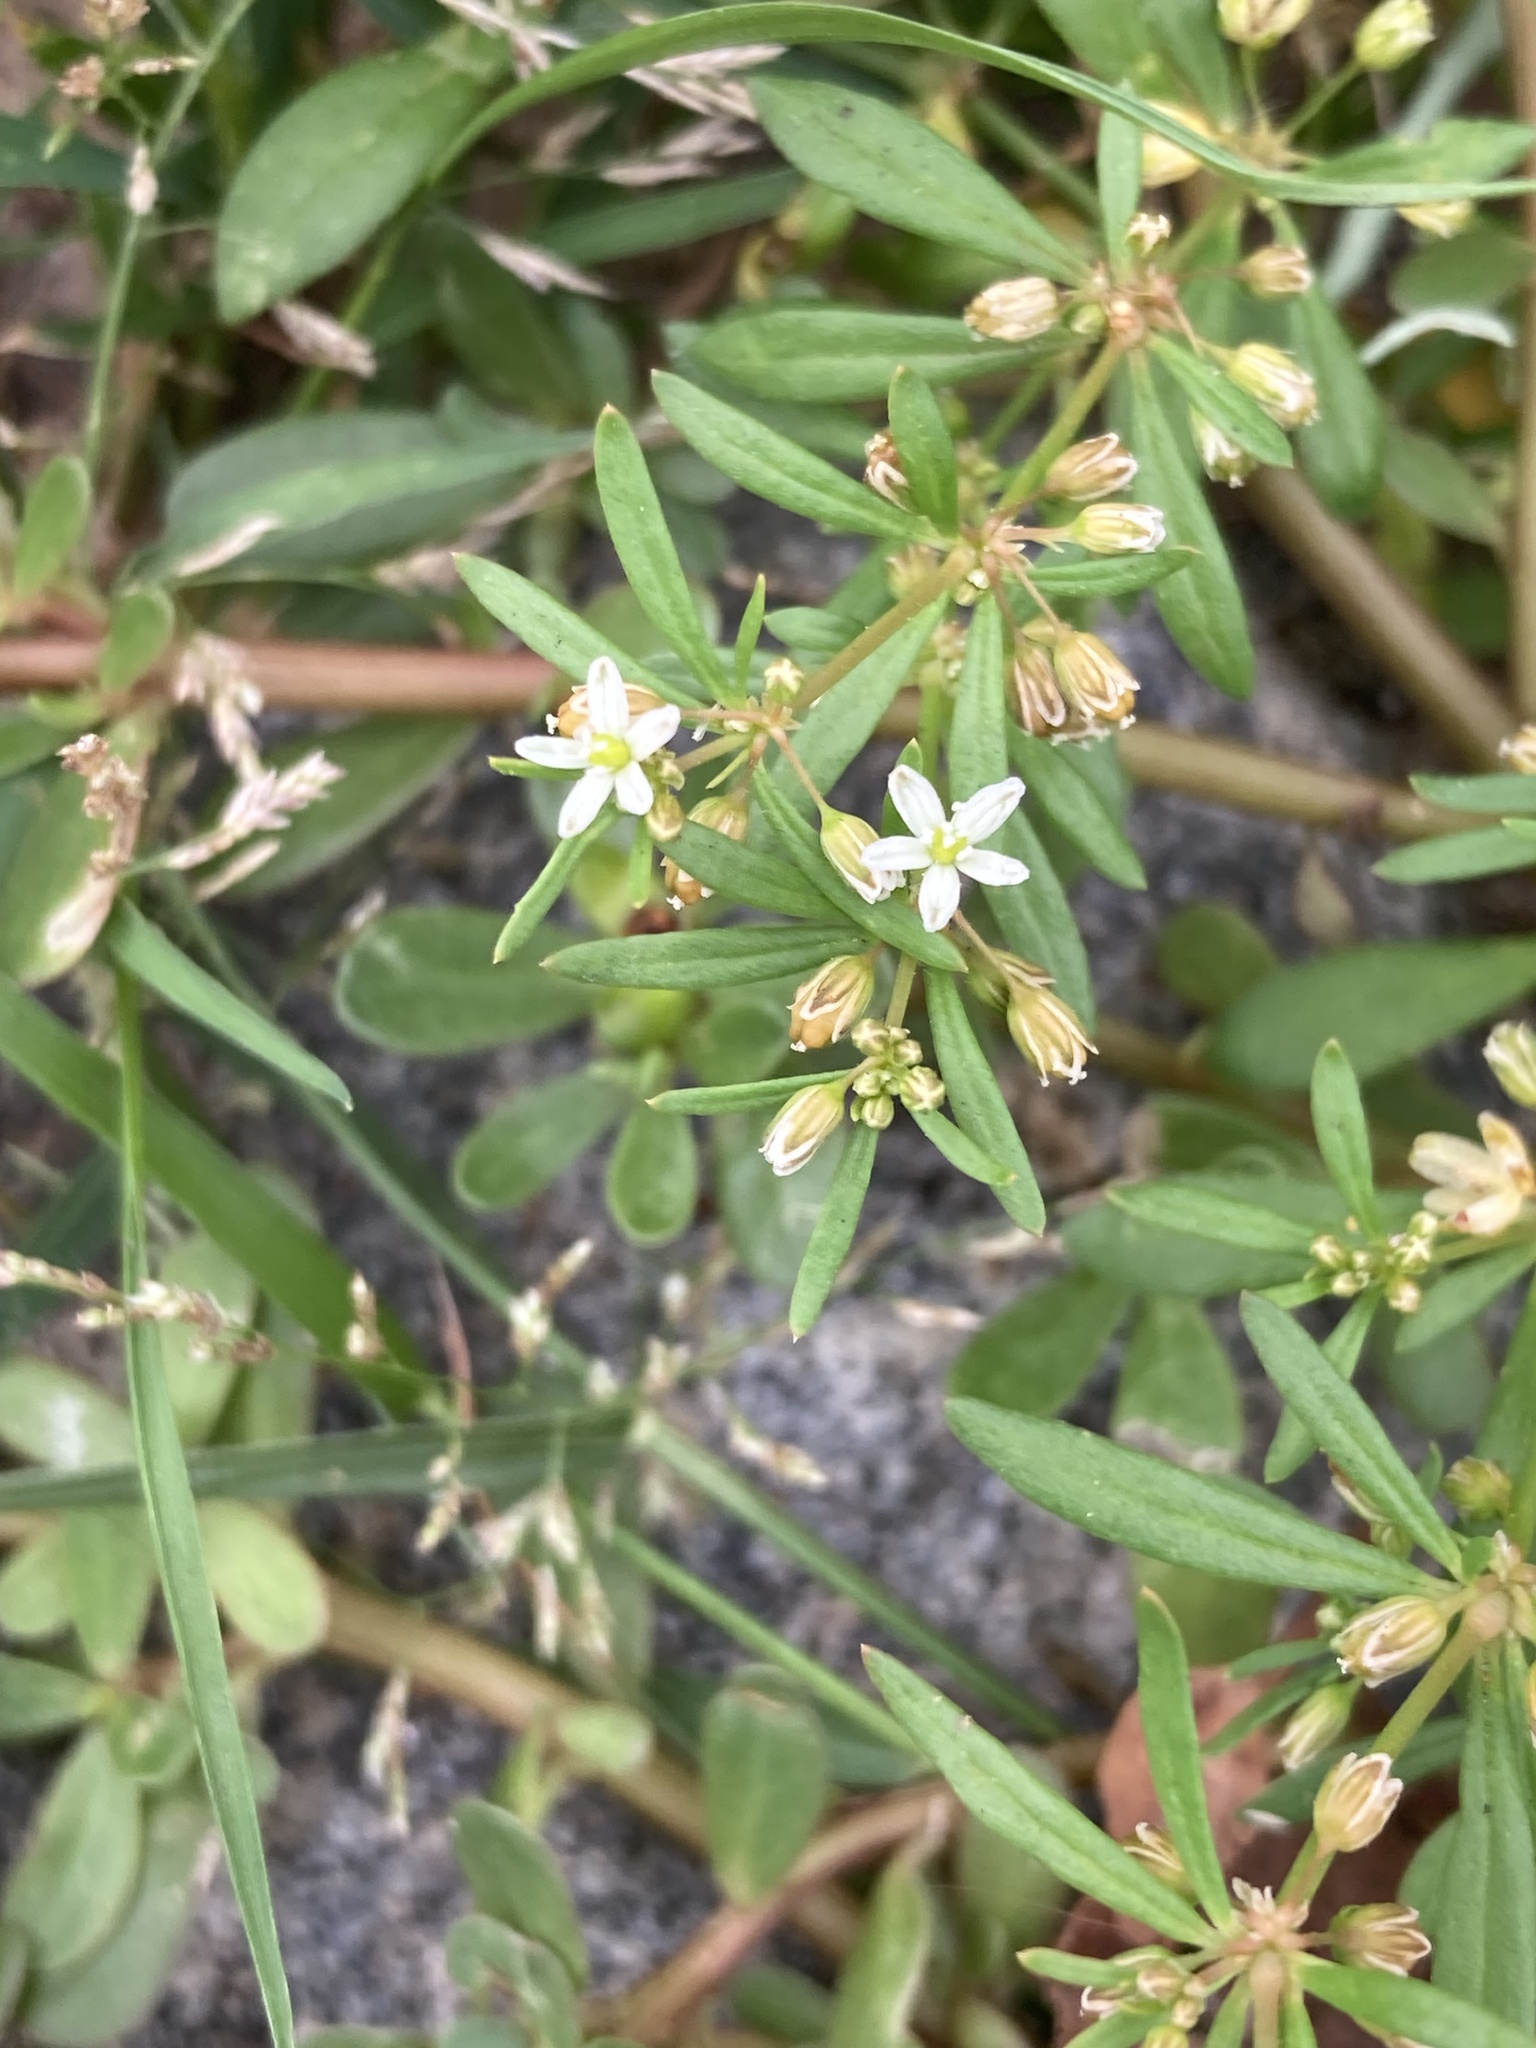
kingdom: Plantae
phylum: Tracheophyta
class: Magnoliopsida
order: Caryophyllales
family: Molluginaceae
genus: Mollugo
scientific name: Mollugo verticillata
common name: Green carpetweed
